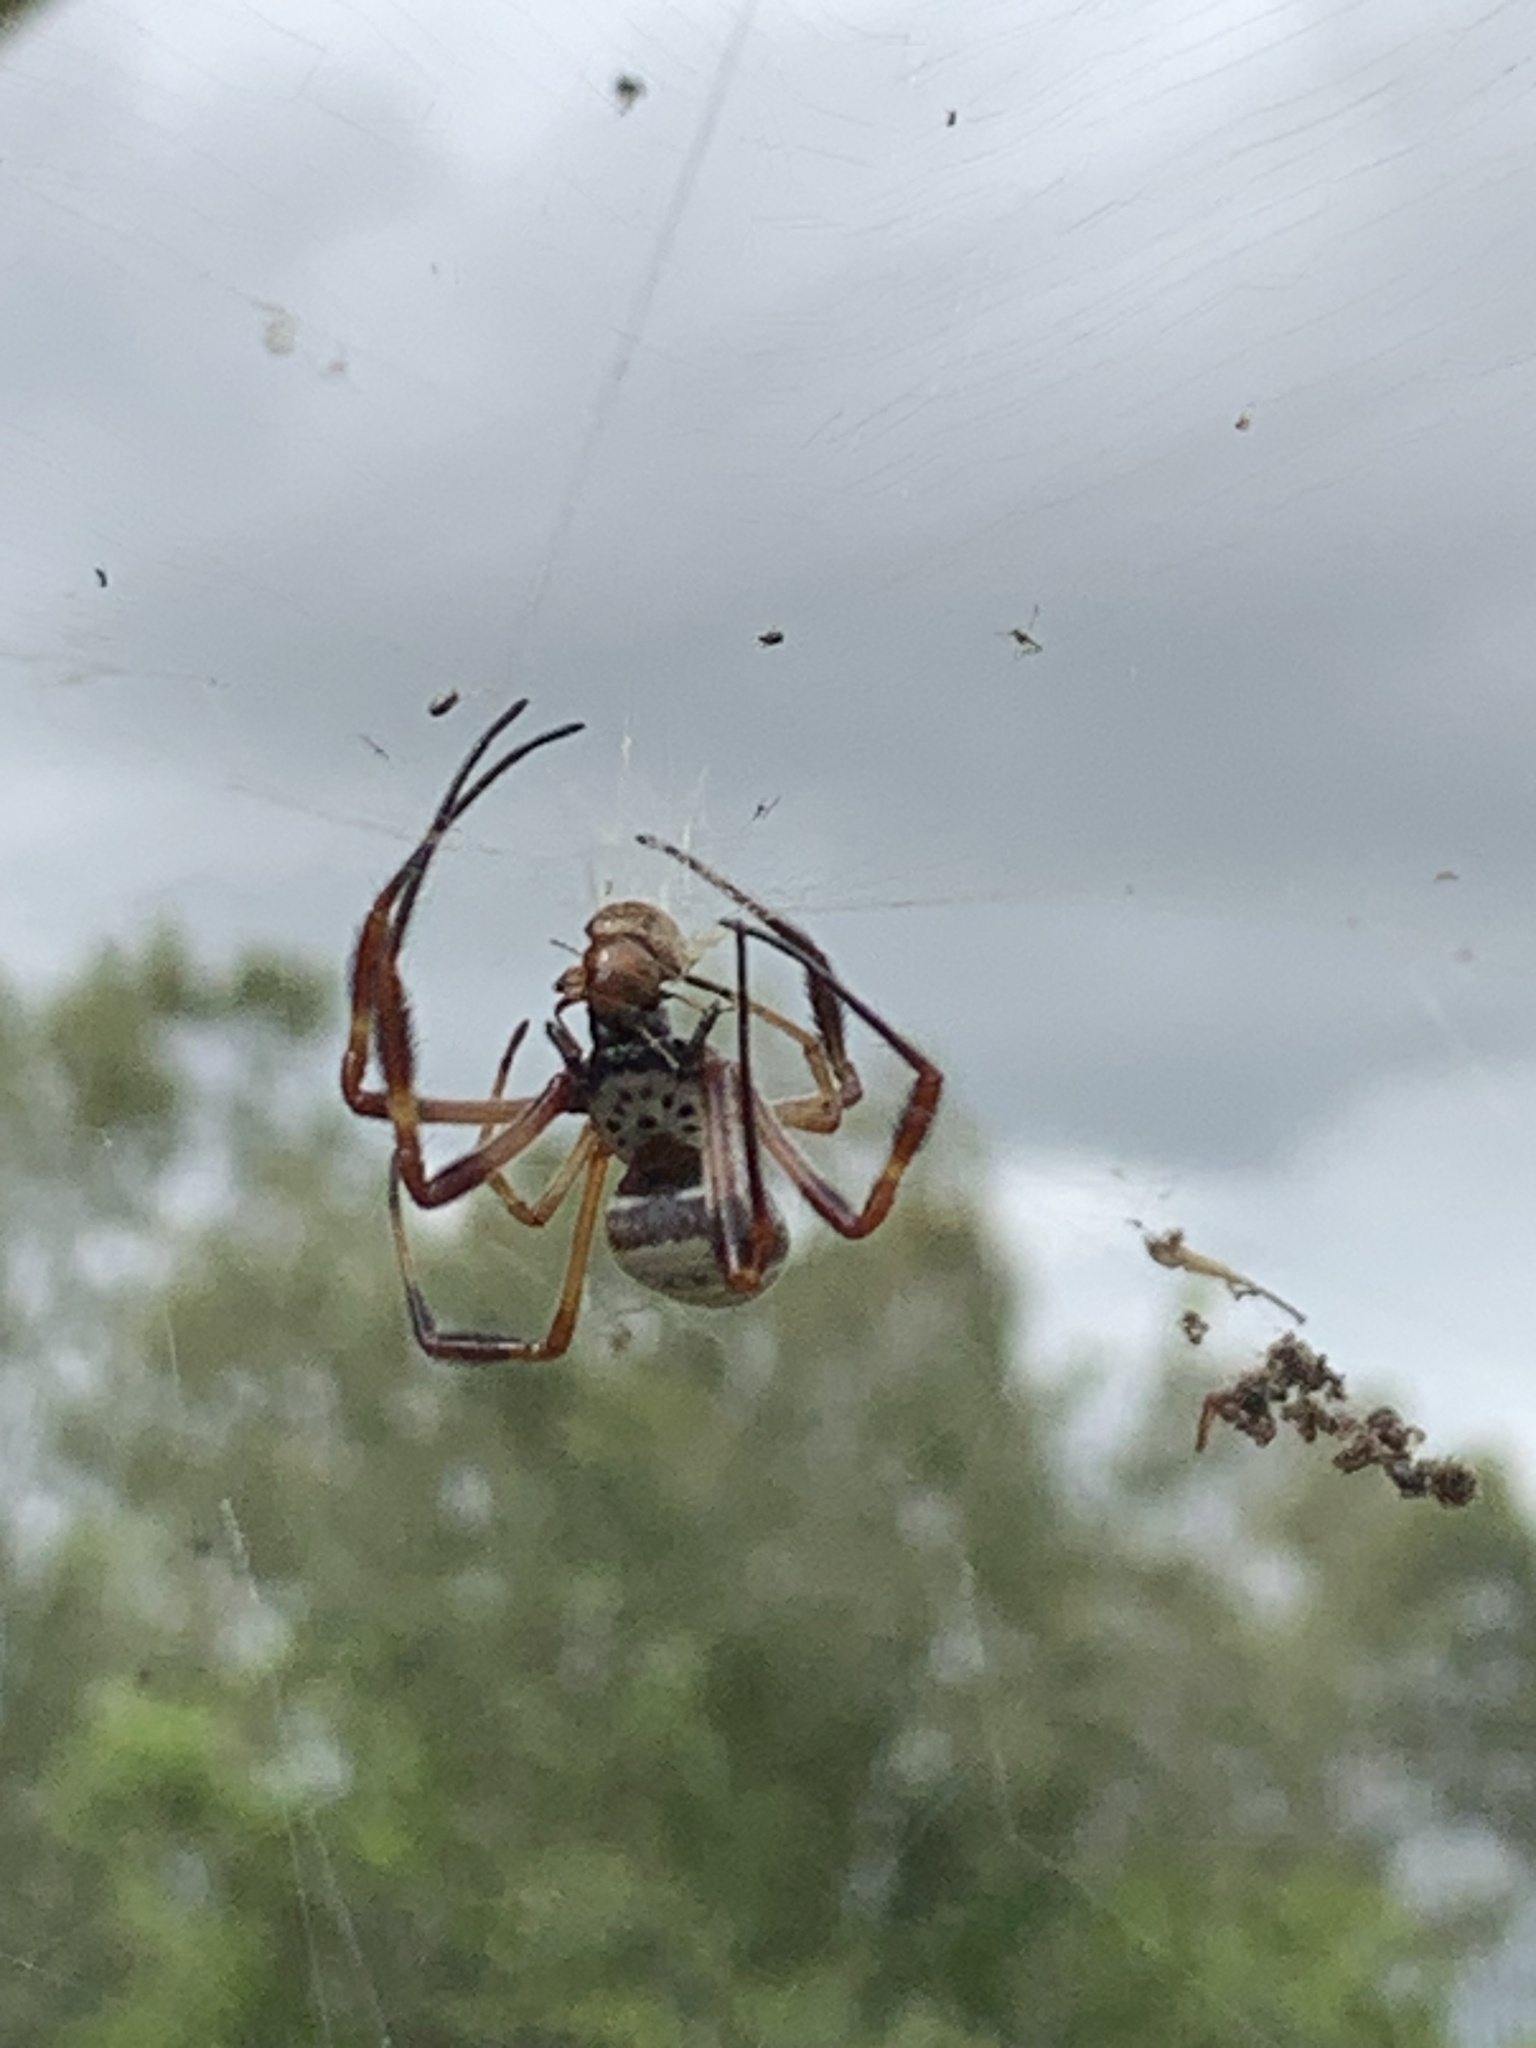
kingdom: Animalia
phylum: Arthropoda
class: Arachnida
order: Araneae
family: Araneidae
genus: Trichonephila
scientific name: Trichonephila edulis
